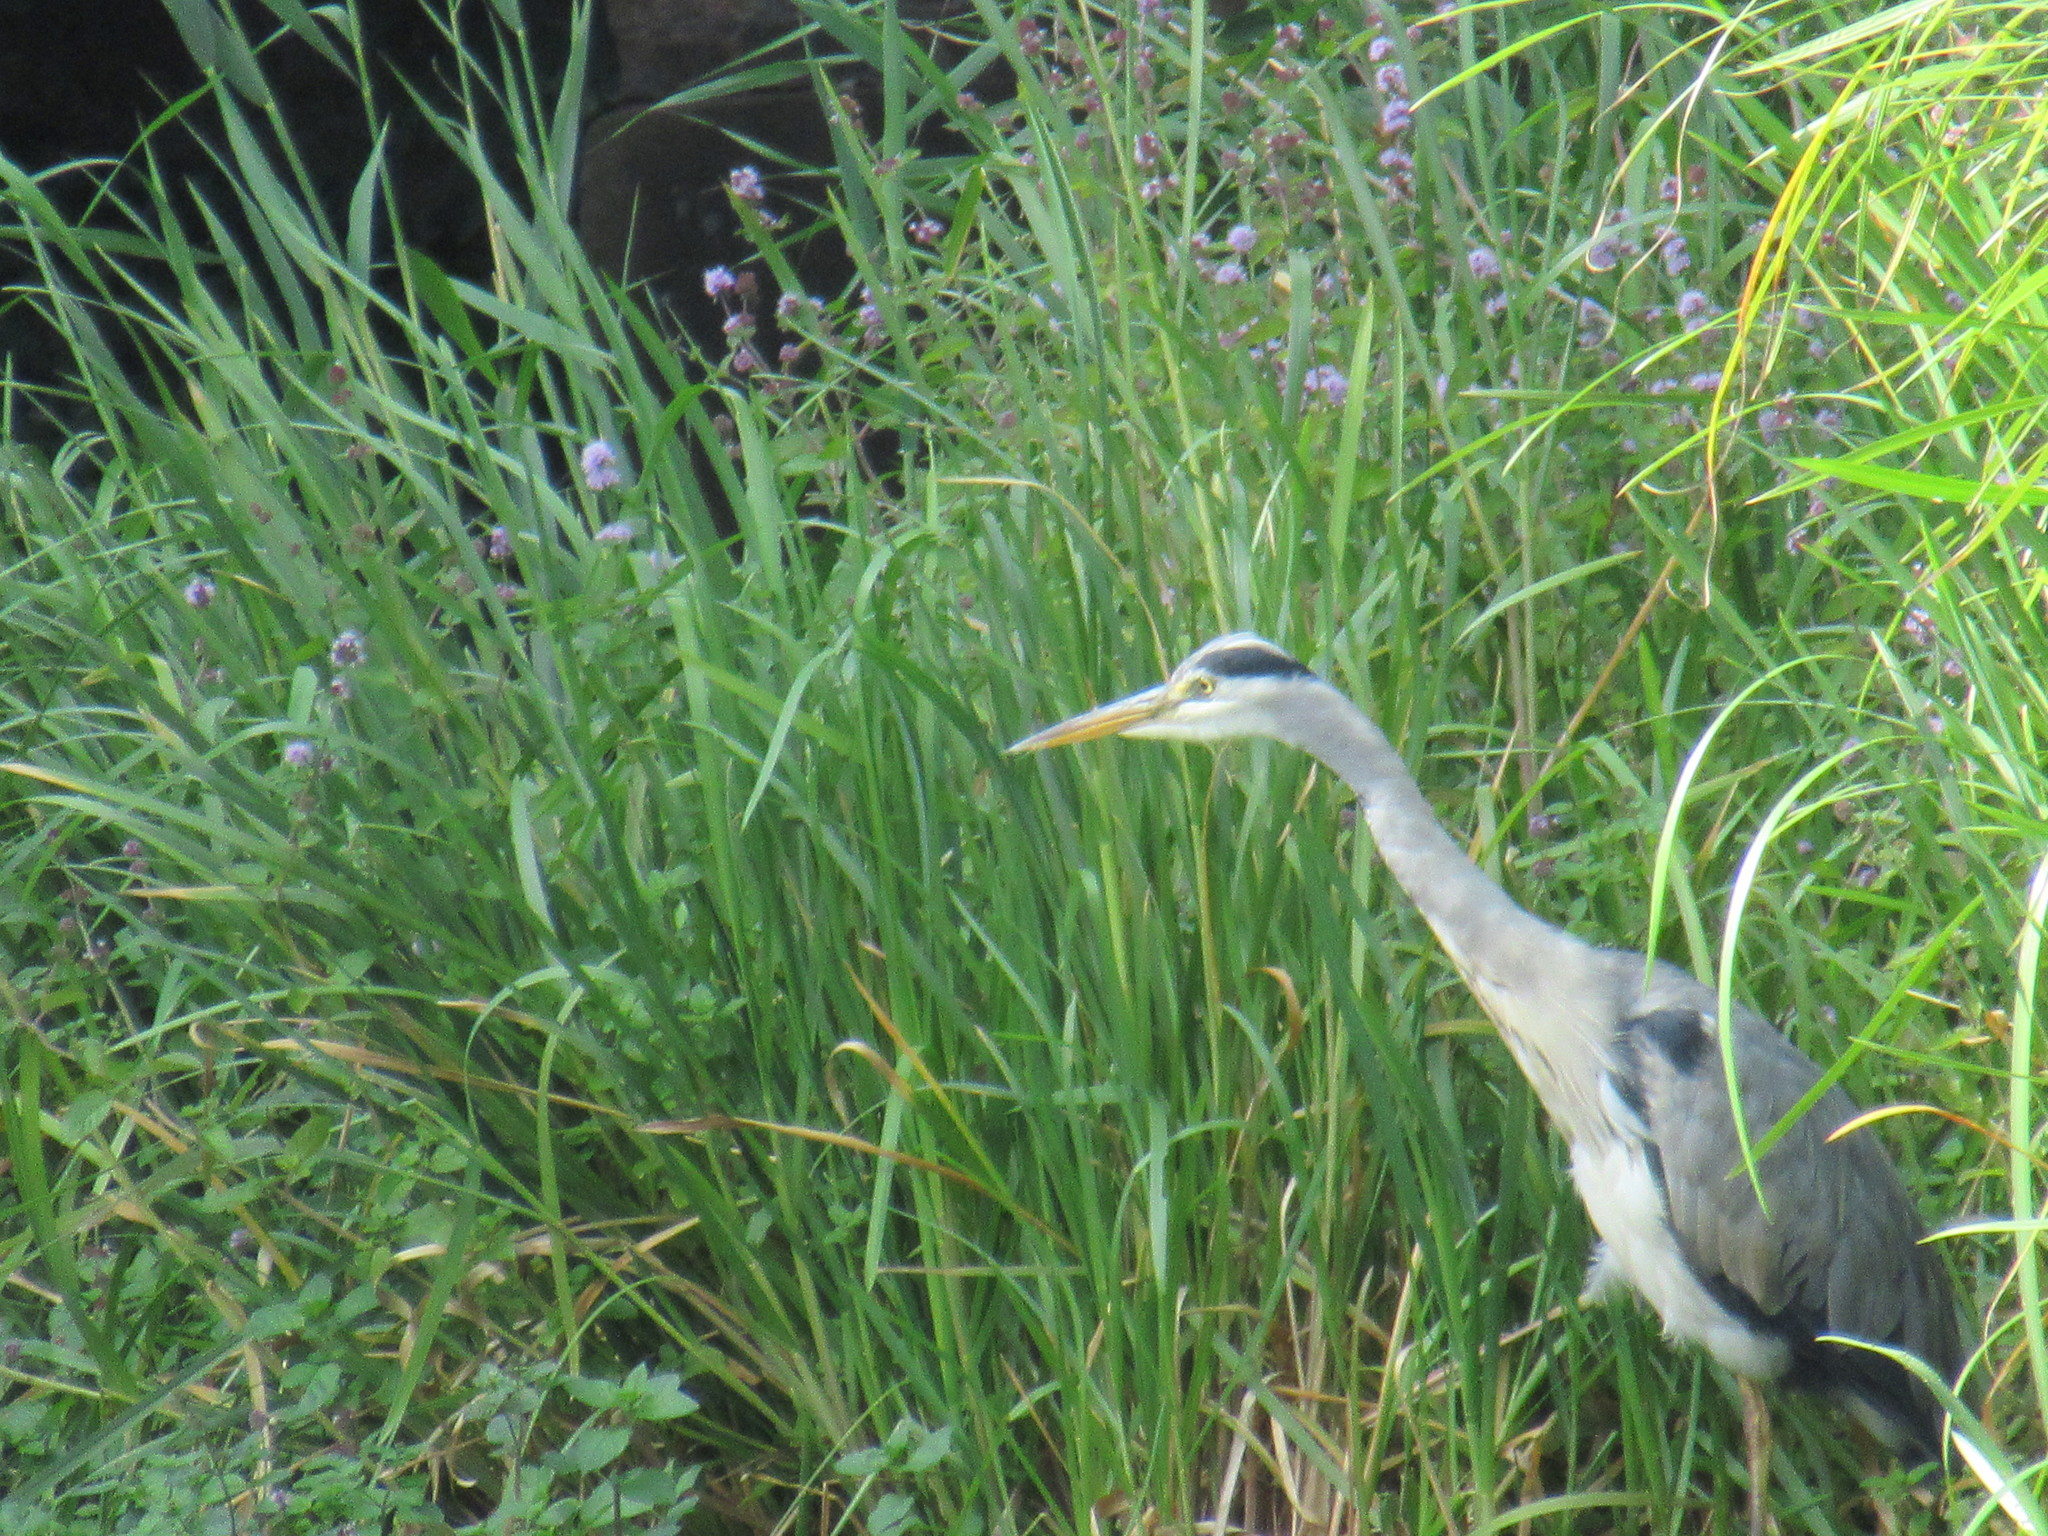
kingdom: Animalia
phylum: Chordata
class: Aves
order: Pelecaniformes
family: Ardeidae
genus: Ardea
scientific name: Ardea cinerea
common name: Grey heron
